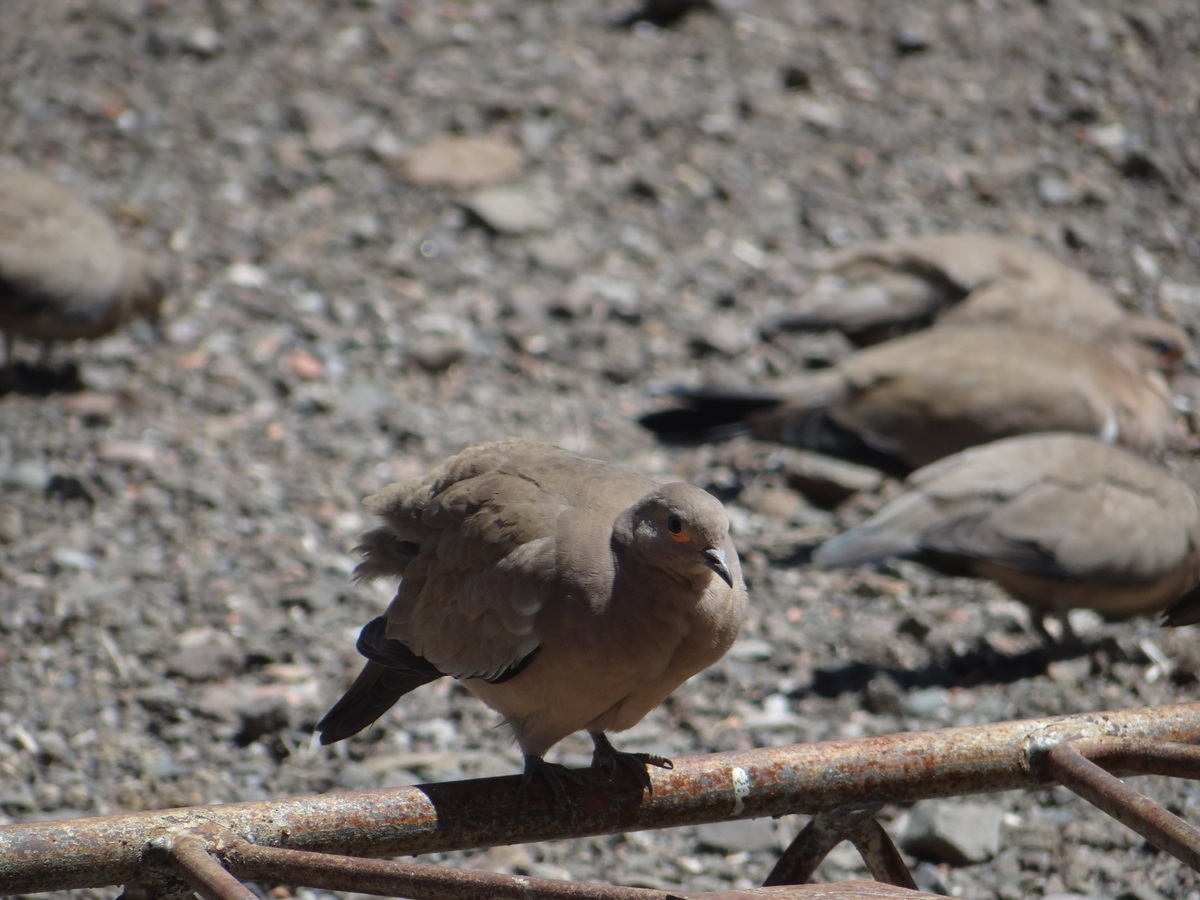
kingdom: Animalia
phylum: Chordata
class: Aves
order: Columbiformes
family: Columbidae
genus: Metriopelia
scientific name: Metriopelia melanoptera
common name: Black-winged ground dove
